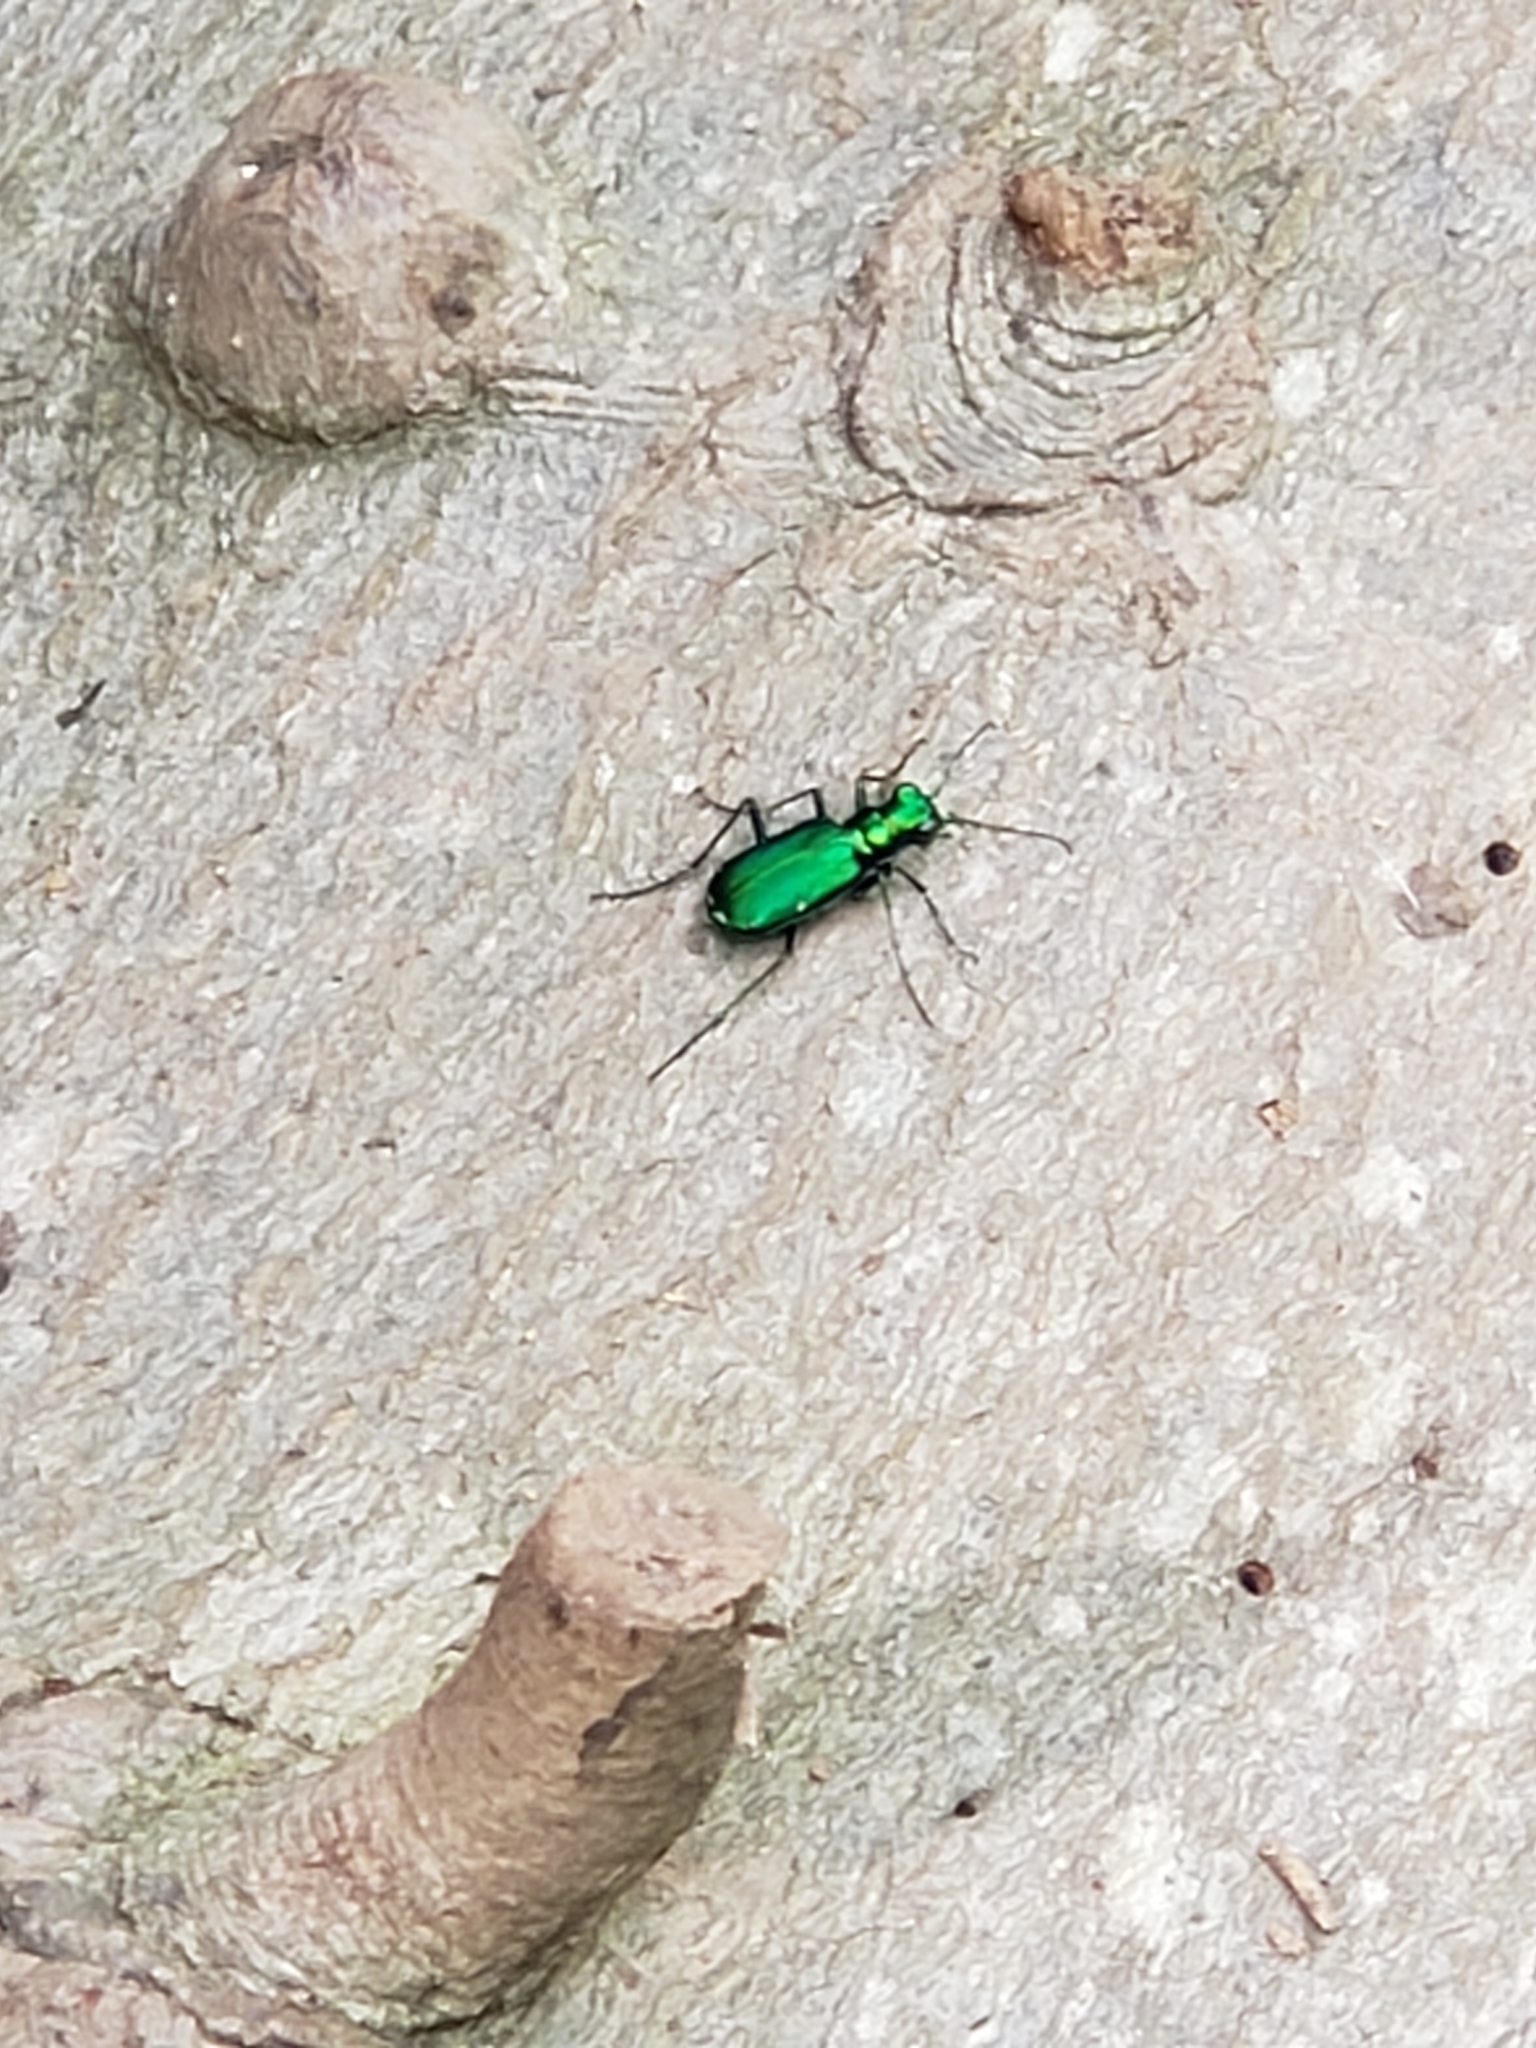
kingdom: Animalia
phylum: Arthropoda
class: Insecta
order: Coleoptera
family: Carabidae
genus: Cicindela
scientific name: Cicindela sexguttata
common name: Six-spotted tiger beetle
